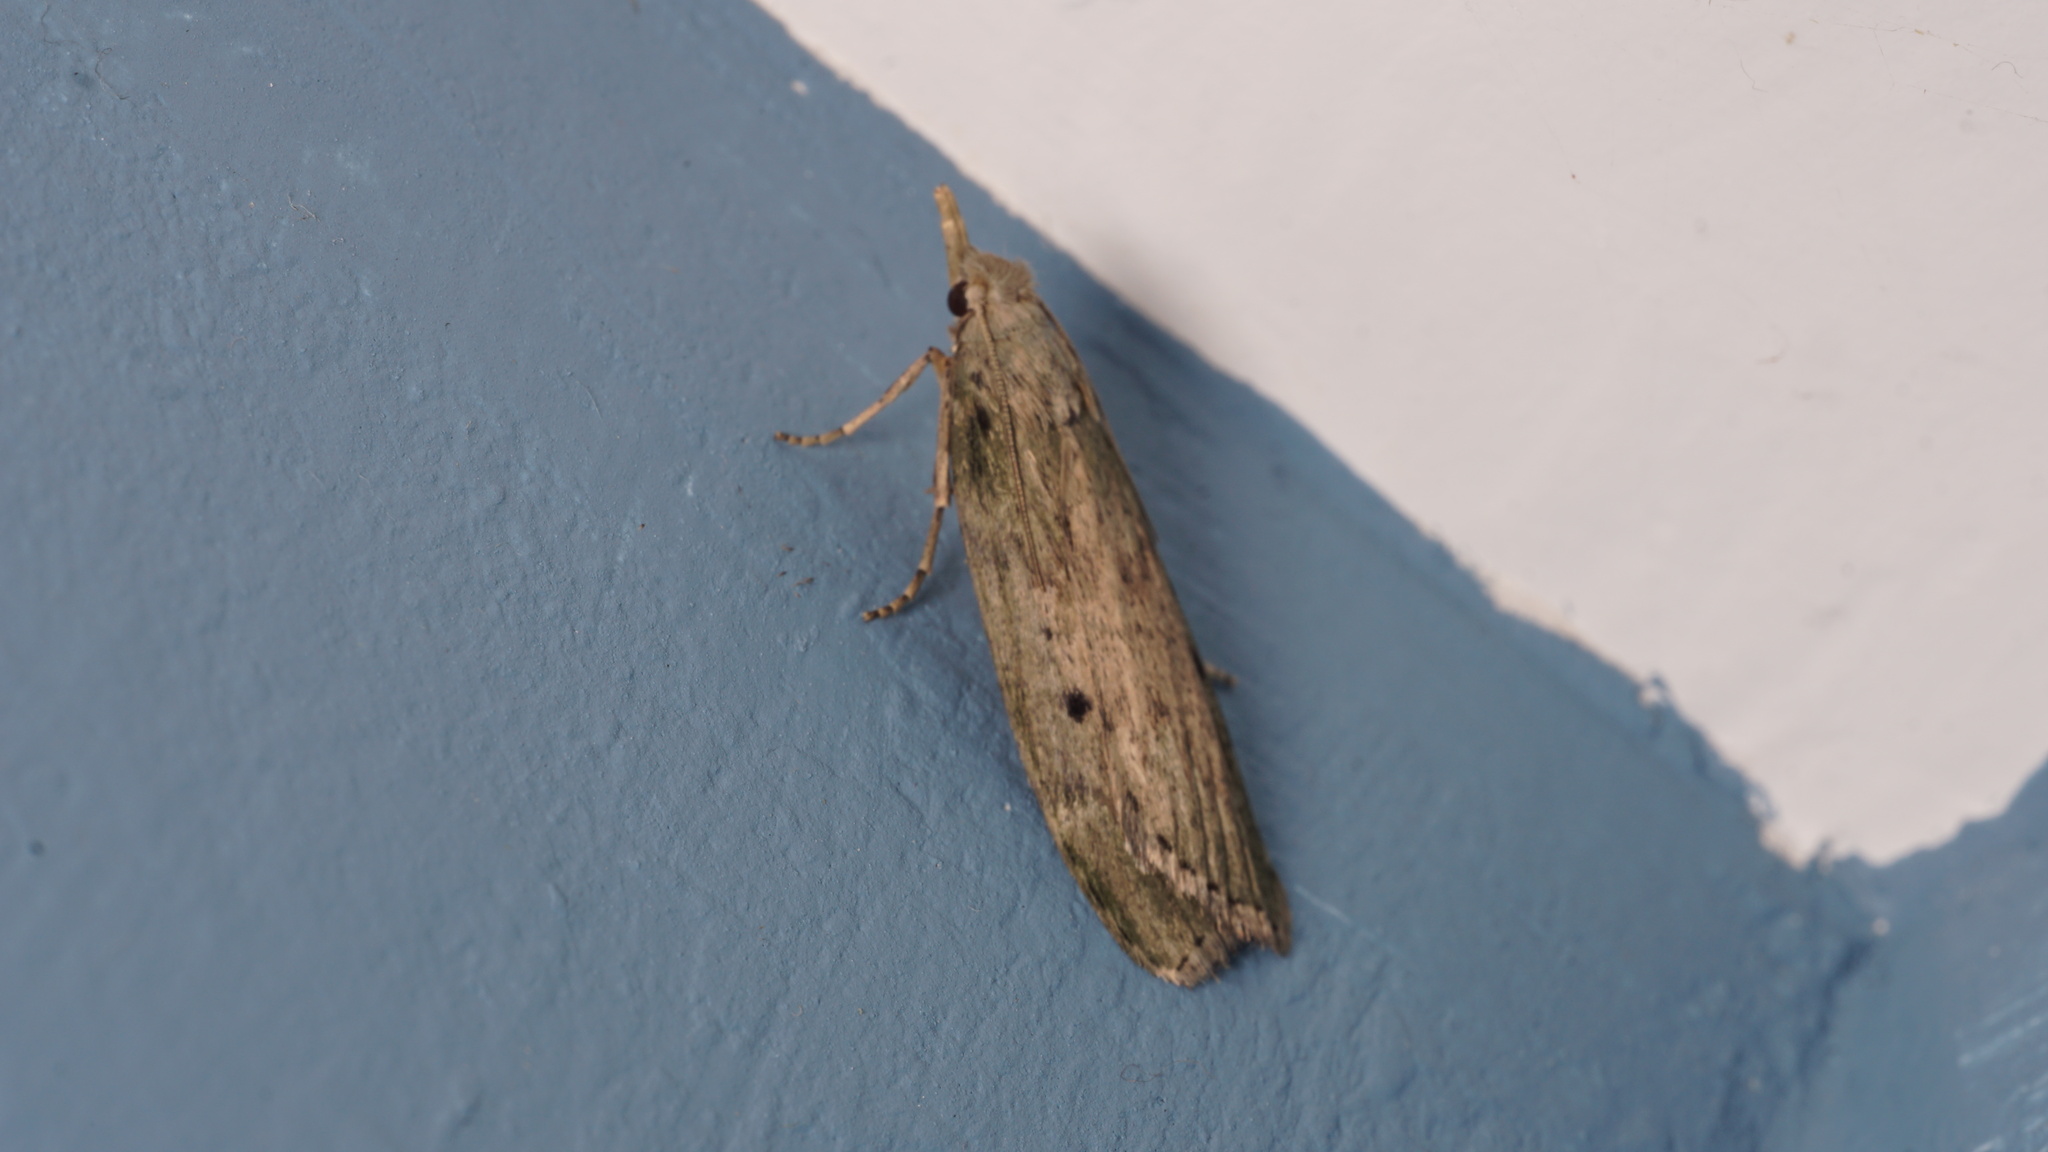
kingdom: Animalia
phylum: Arthropoda
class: Insecta
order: Lepidoptera
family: Pyralidae
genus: Aphomia
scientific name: Aphomia sociella
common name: Bee moth
